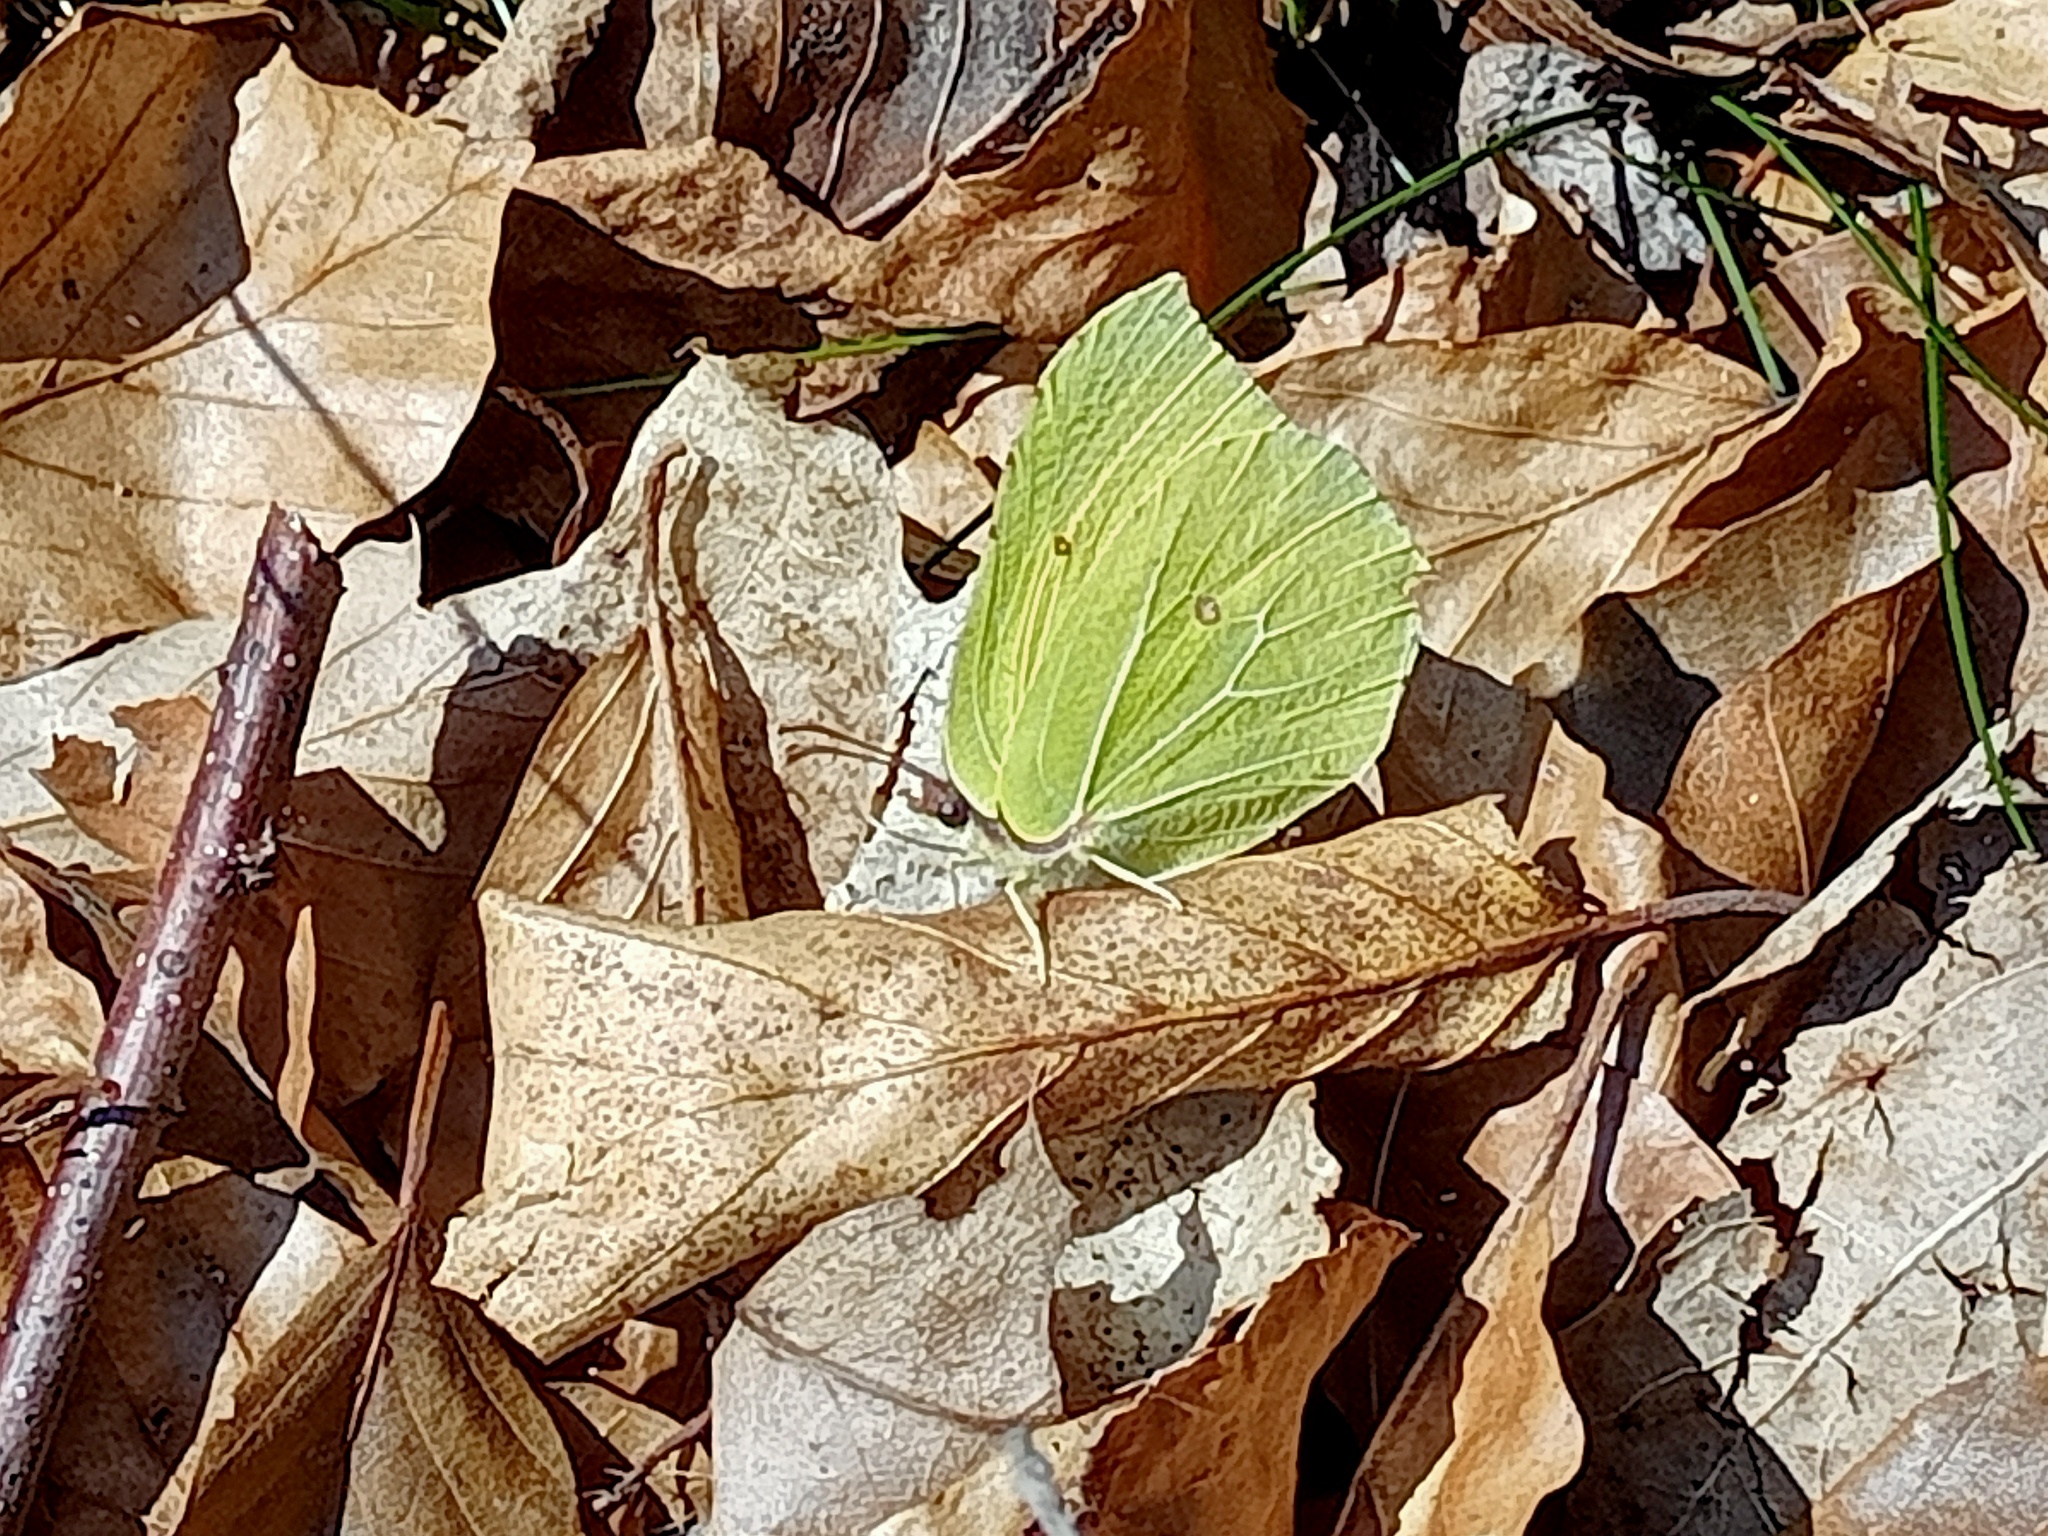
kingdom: Animalia
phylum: Arthropoda
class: Insecta
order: Lepidoptera
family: Pieridae
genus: Gonepteryx
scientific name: Gonepteryx rhamni
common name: Brimstone
